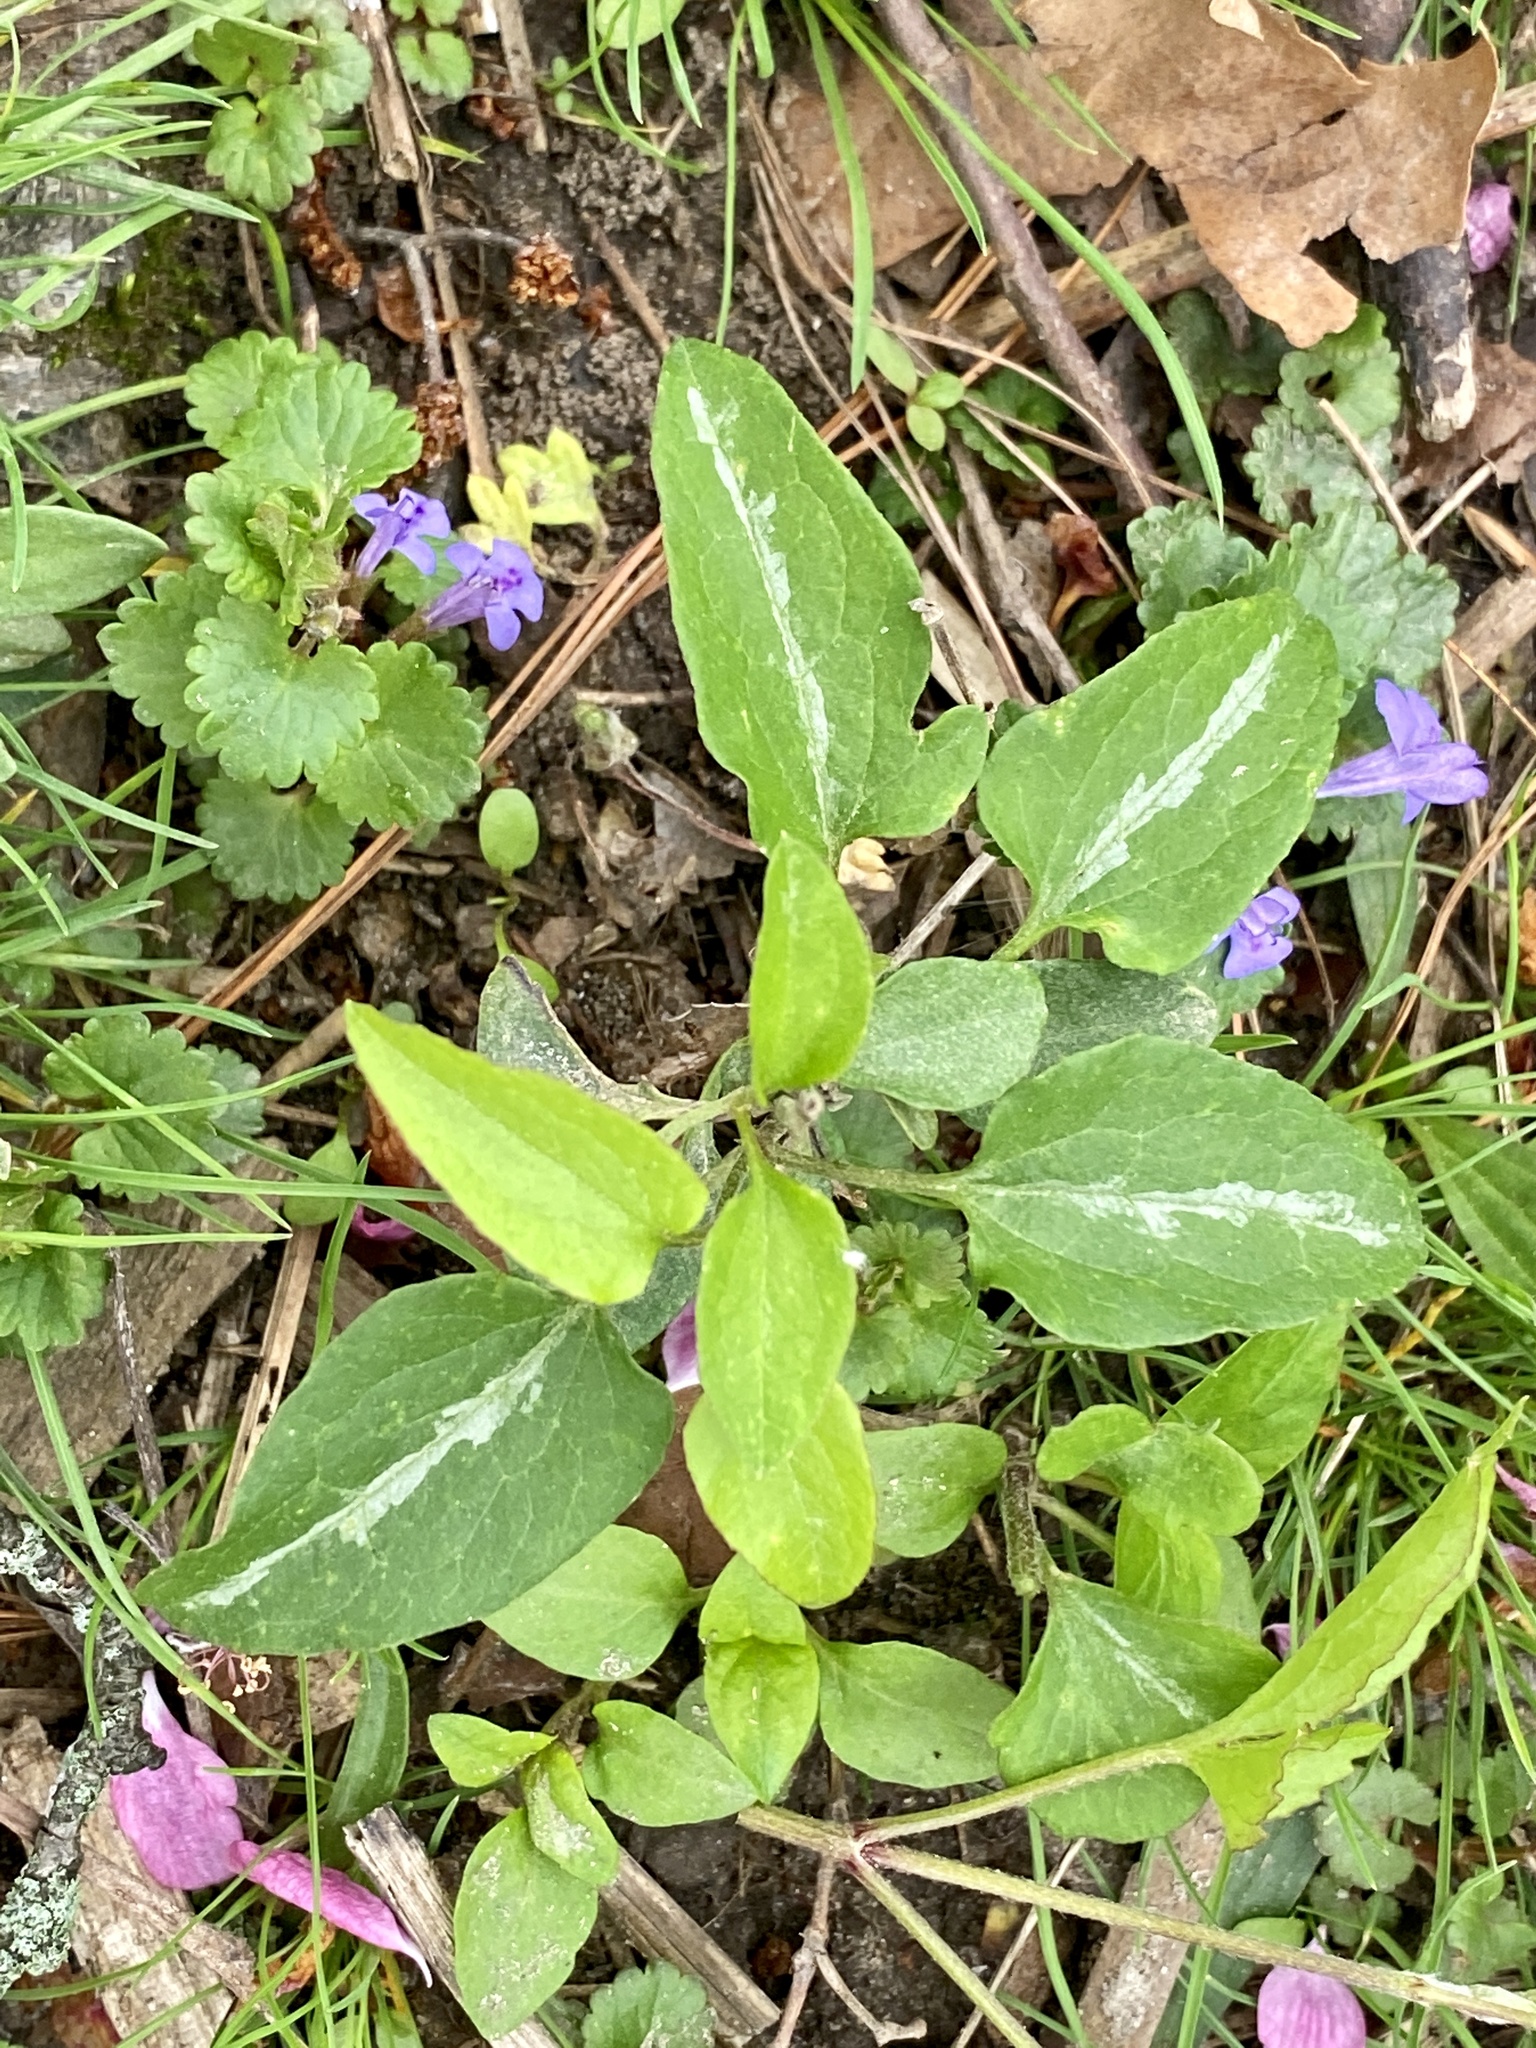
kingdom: Plantae
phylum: Tracheophyta
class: Magnoliopsida
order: Ranunculales
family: Ranunculaceae
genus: Clematis
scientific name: Clematis terniflora
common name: Sweet autumn clematis
